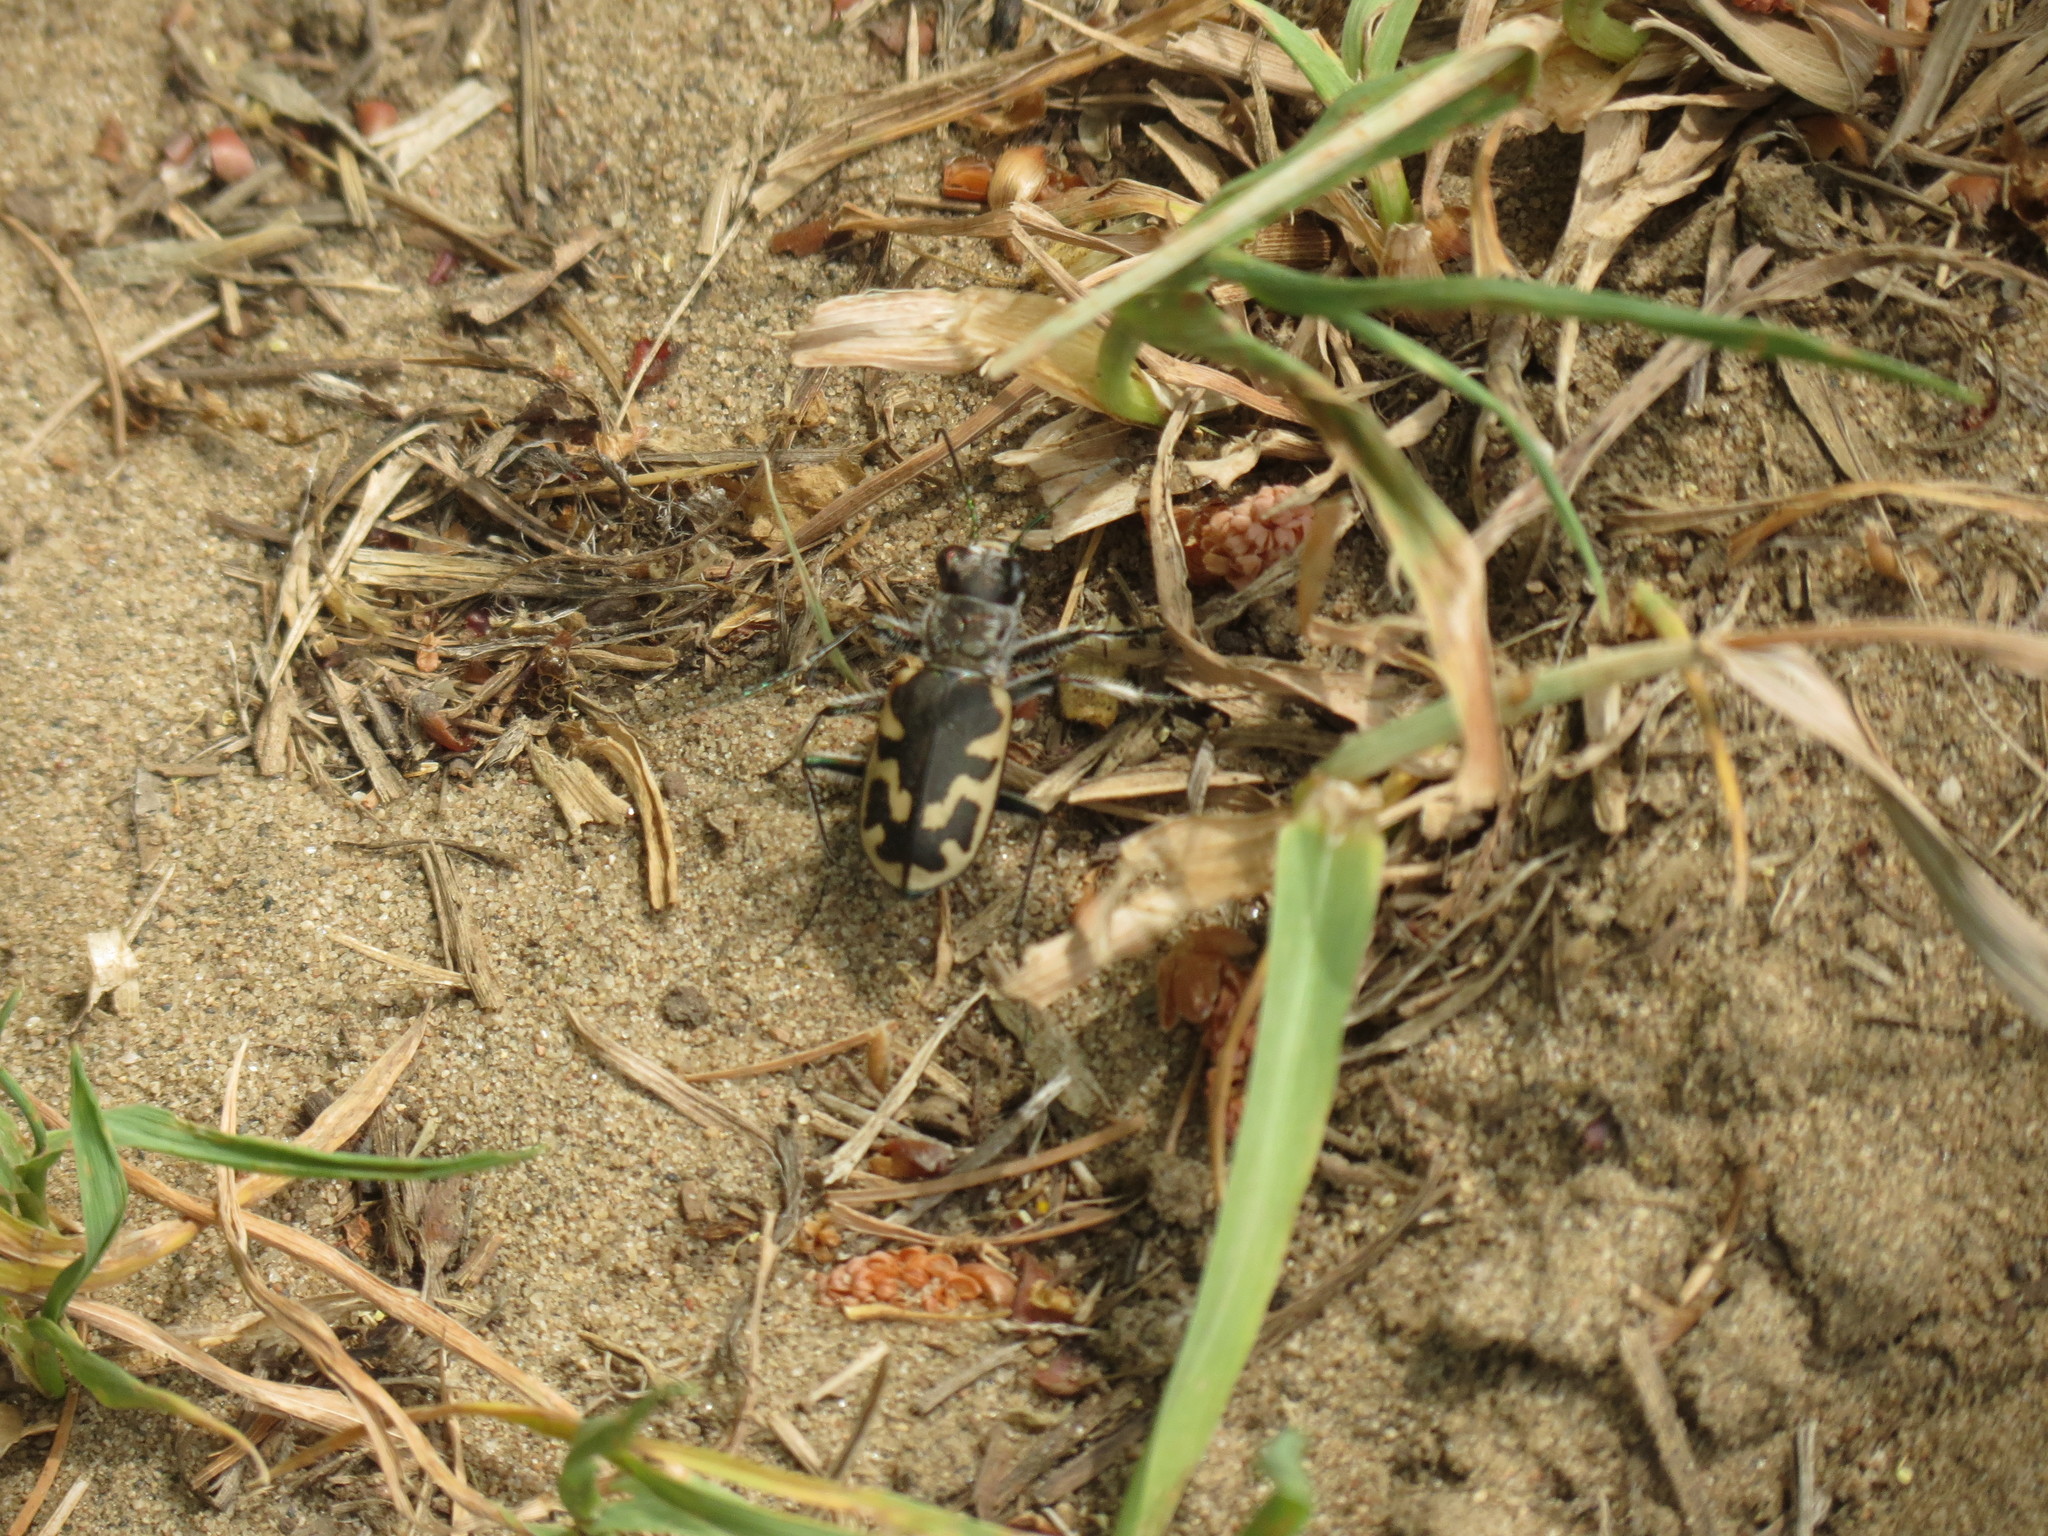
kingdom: Animalia
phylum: Arthropoda
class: Insecta
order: Coleoptera
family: Carabidae
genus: Cicindela
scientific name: Cicindela formosa
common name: Big sand tiger beetle
